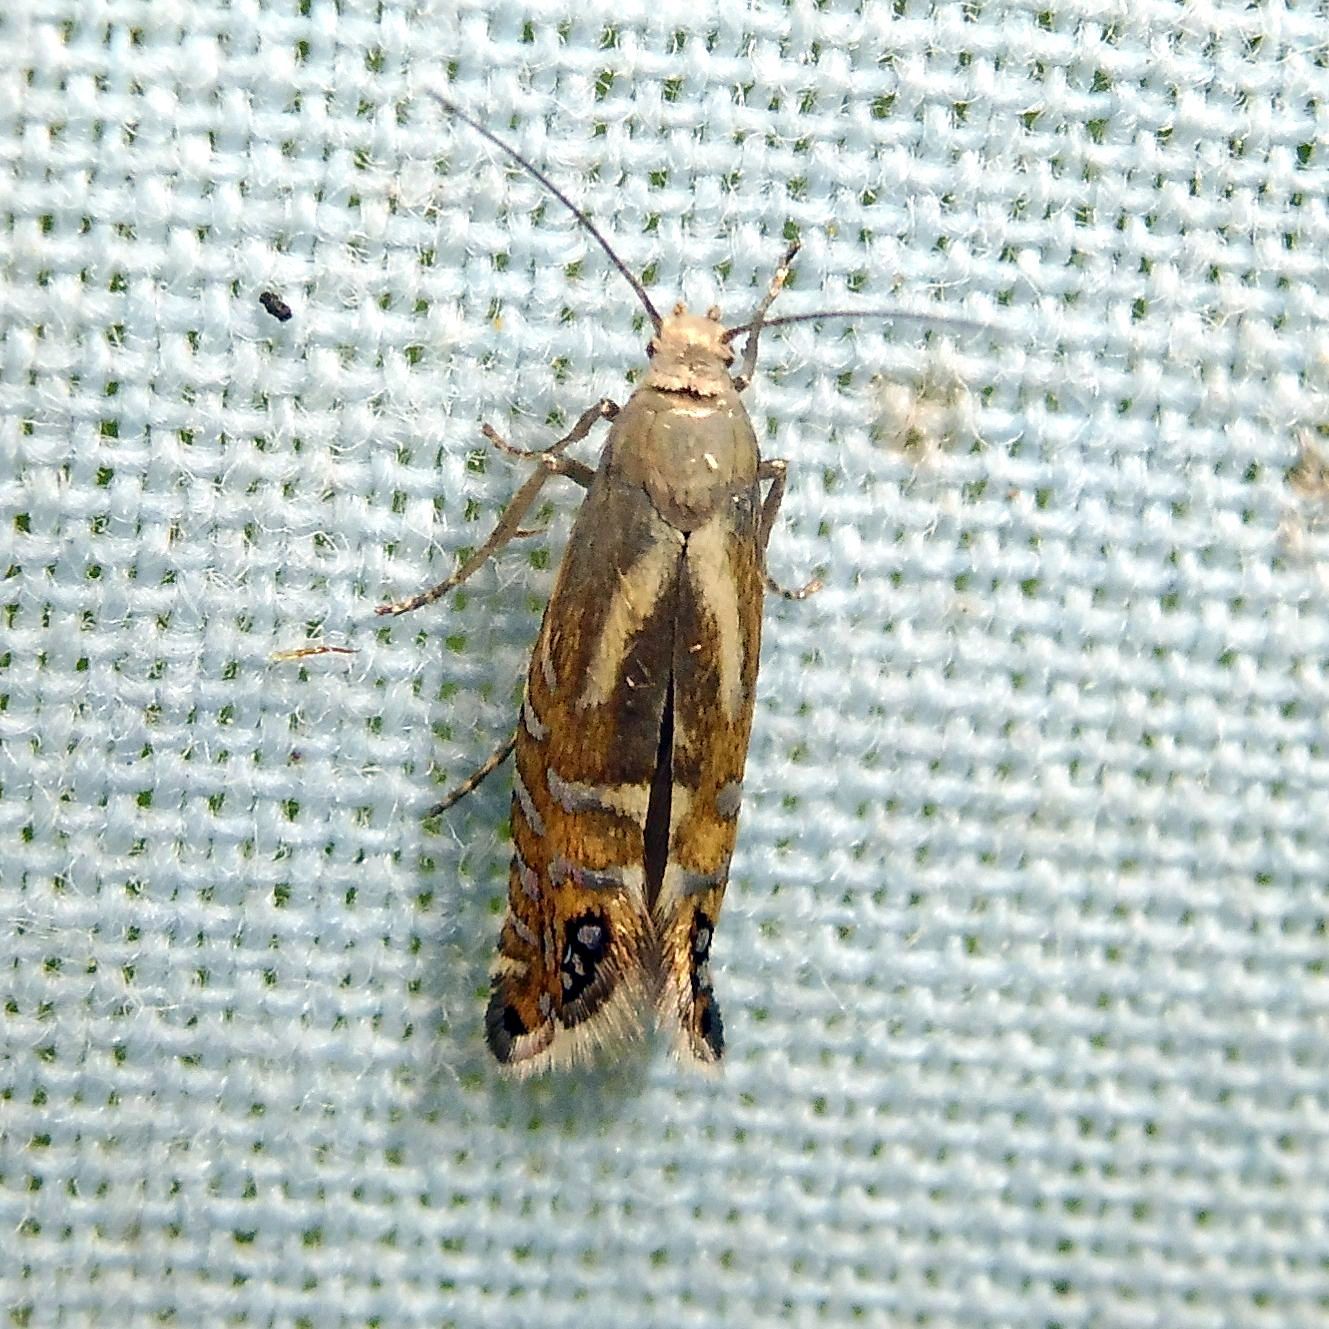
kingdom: Animalia
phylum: Arthropoda
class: Insecta
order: Lepidoptera
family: Glyphipterigidae
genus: Glyphipterix
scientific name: Glyphipterix thrasonella
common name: Speckled fanner
